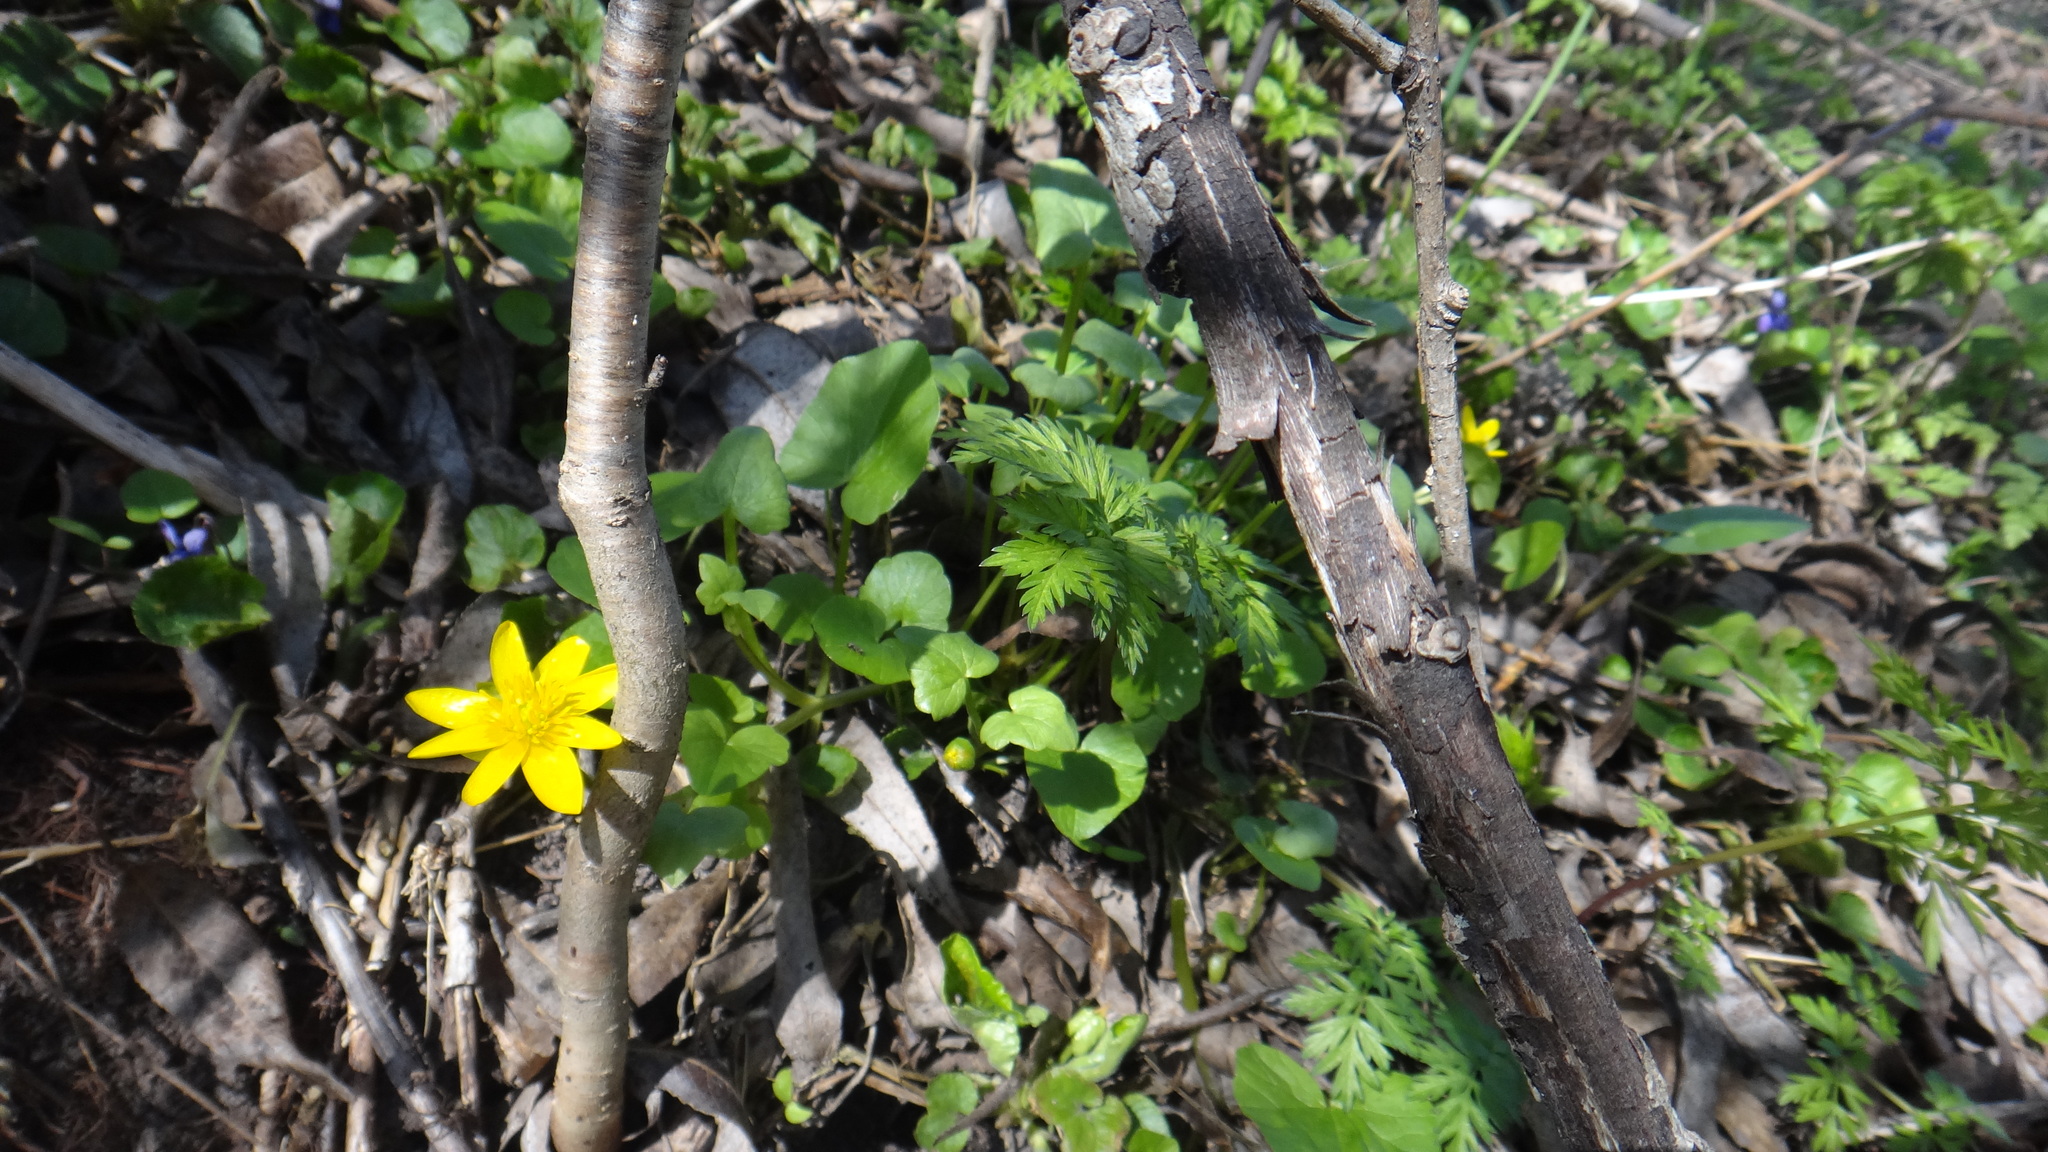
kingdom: Plantae
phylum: Tracheophyta
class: Magnoliopsida
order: Ranunculales
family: Ranunculaceae
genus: Ficaria
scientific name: Ficaria verna
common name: Lesser celandine
